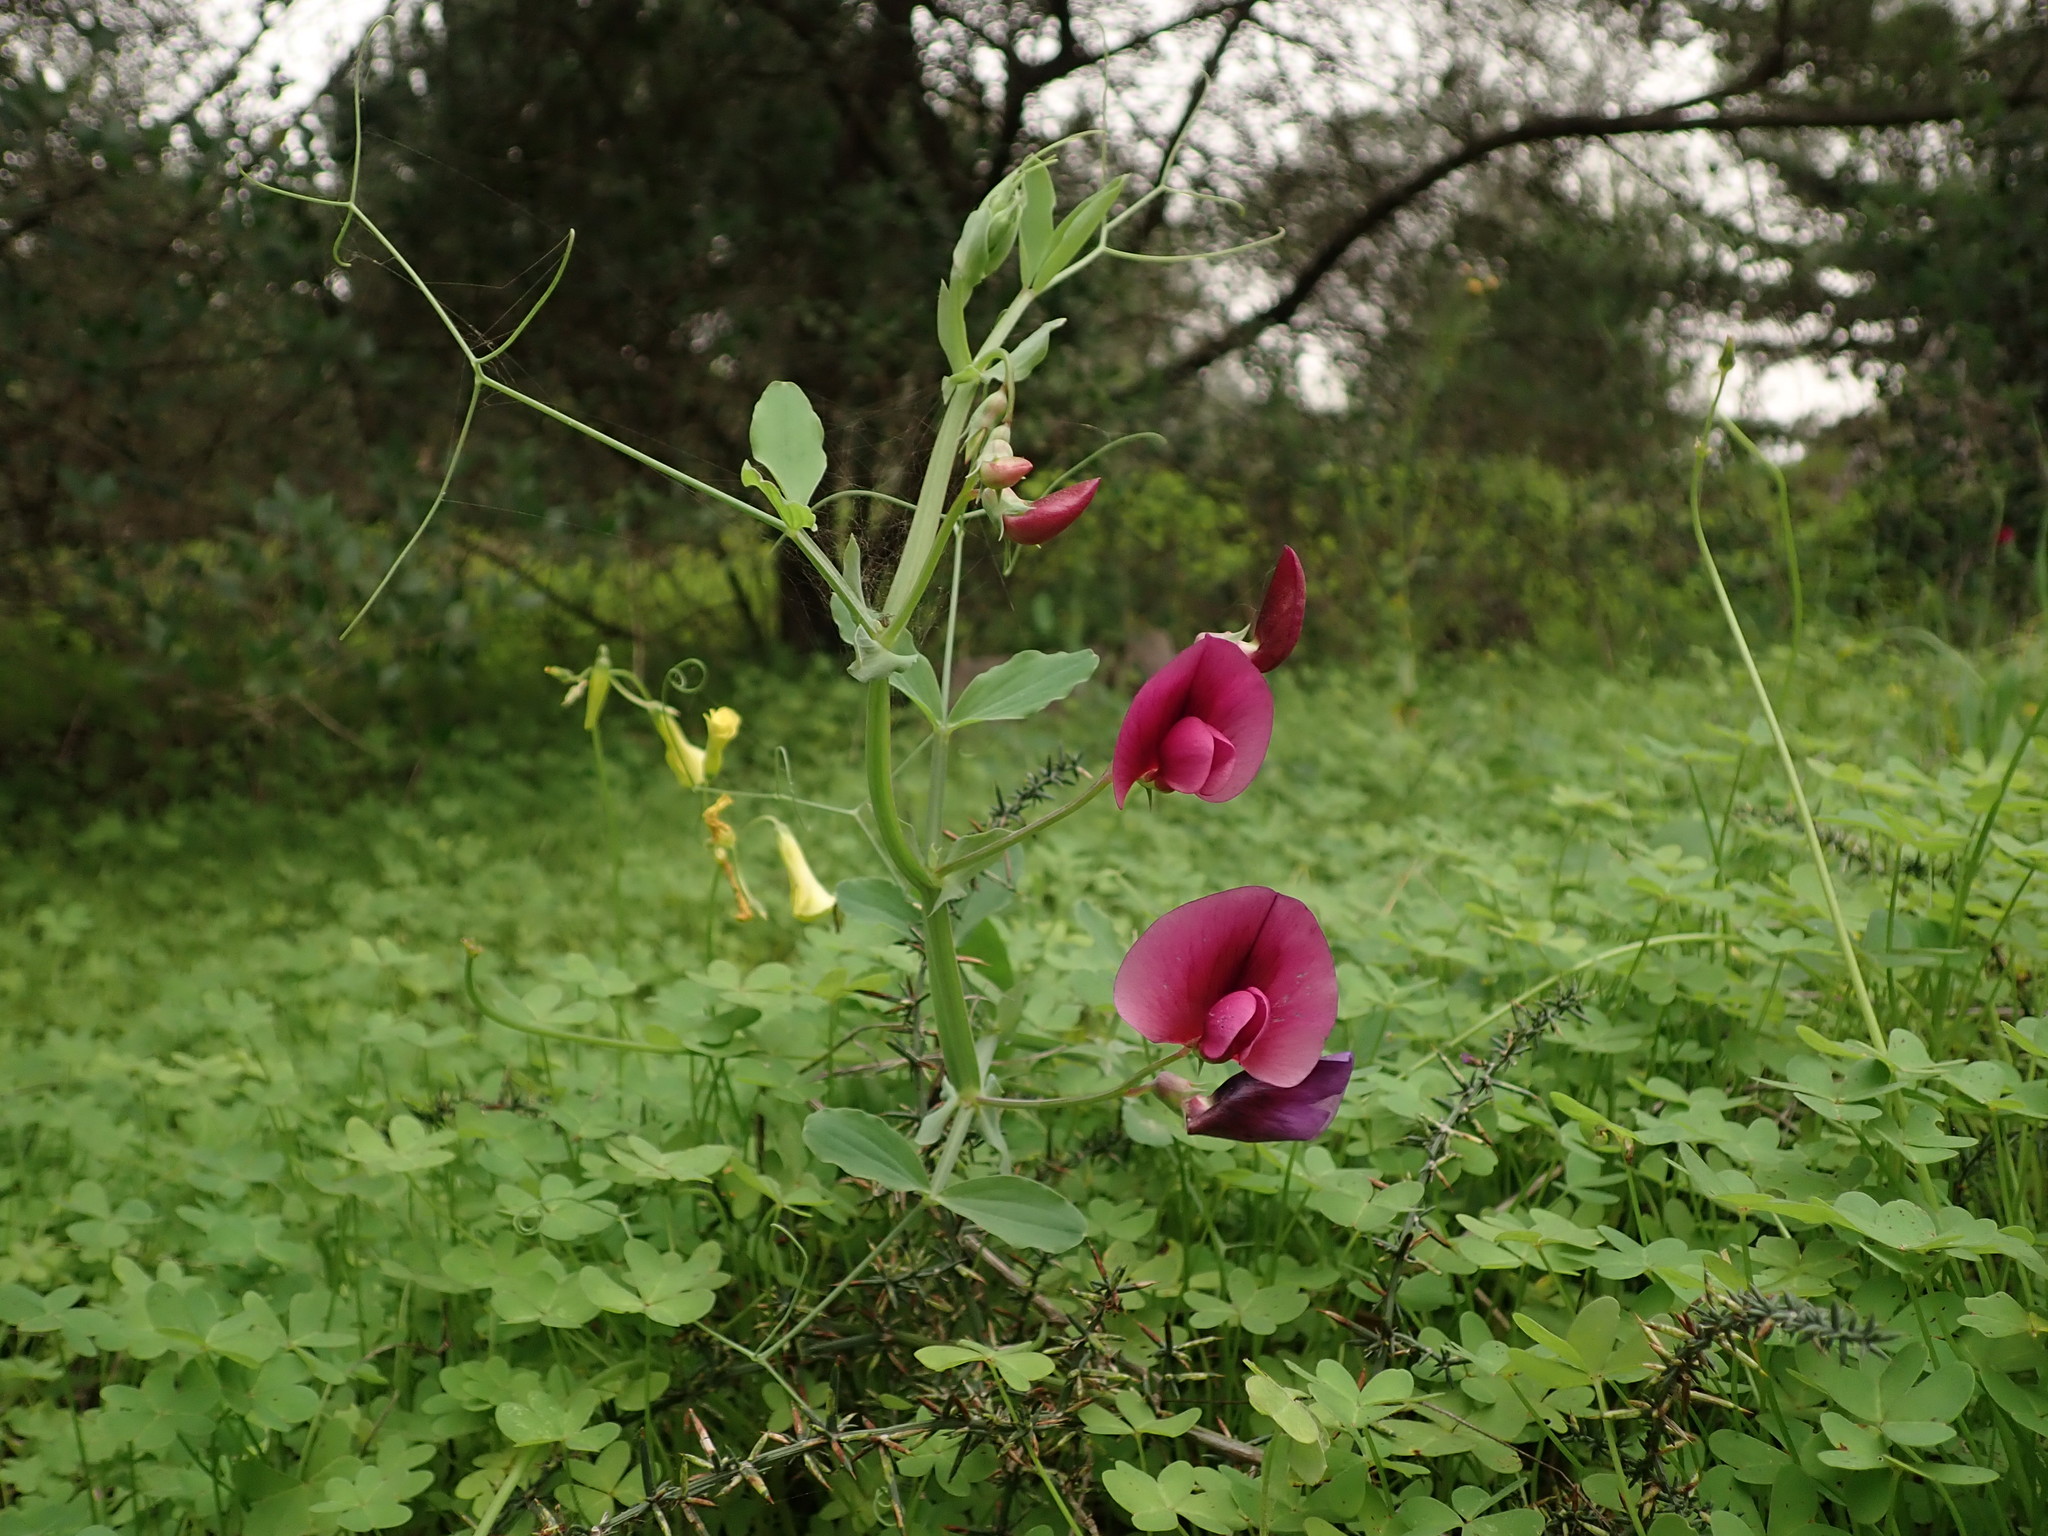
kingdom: Plantae
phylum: Tracheophyta
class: Magnoliopsida
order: Fabales
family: Fabaceae
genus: Lathyrus
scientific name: Lathyrus tingitanus
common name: Tangier pea
